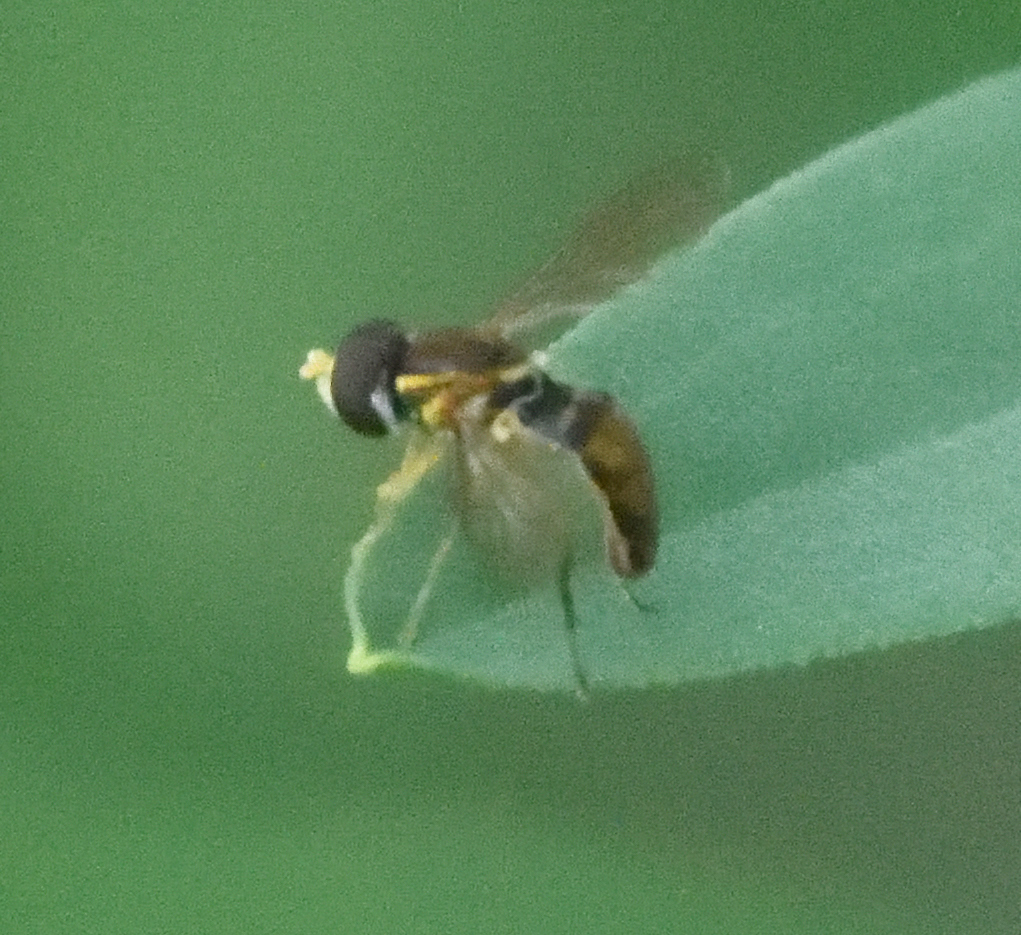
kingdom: Animalia
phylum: Arthropoda
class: Insecta
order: Diptera
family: Syrphidae
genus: Toxomerus
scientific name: Toxomerus marginatus
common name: Syrphid fly
